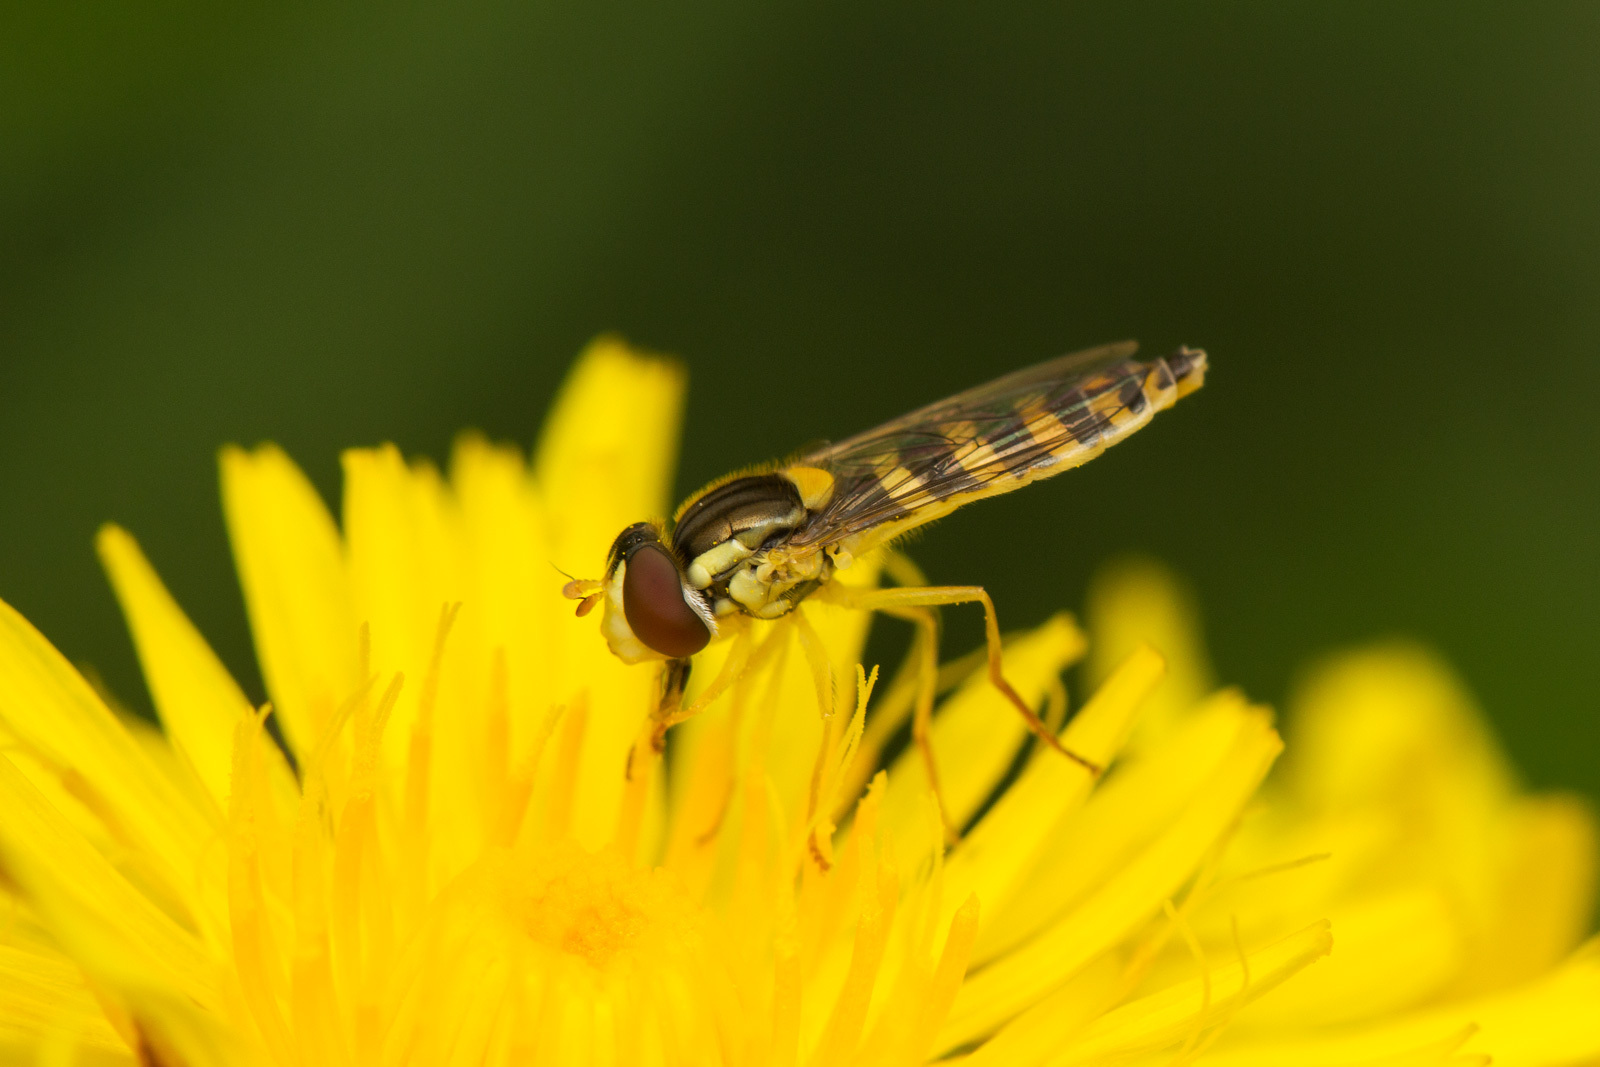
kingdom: Animalia
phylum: Arthropoda
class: Insecta
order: Diptera
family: Syrphidae
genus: Sphaerophoria
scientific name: Sphaerophoria
